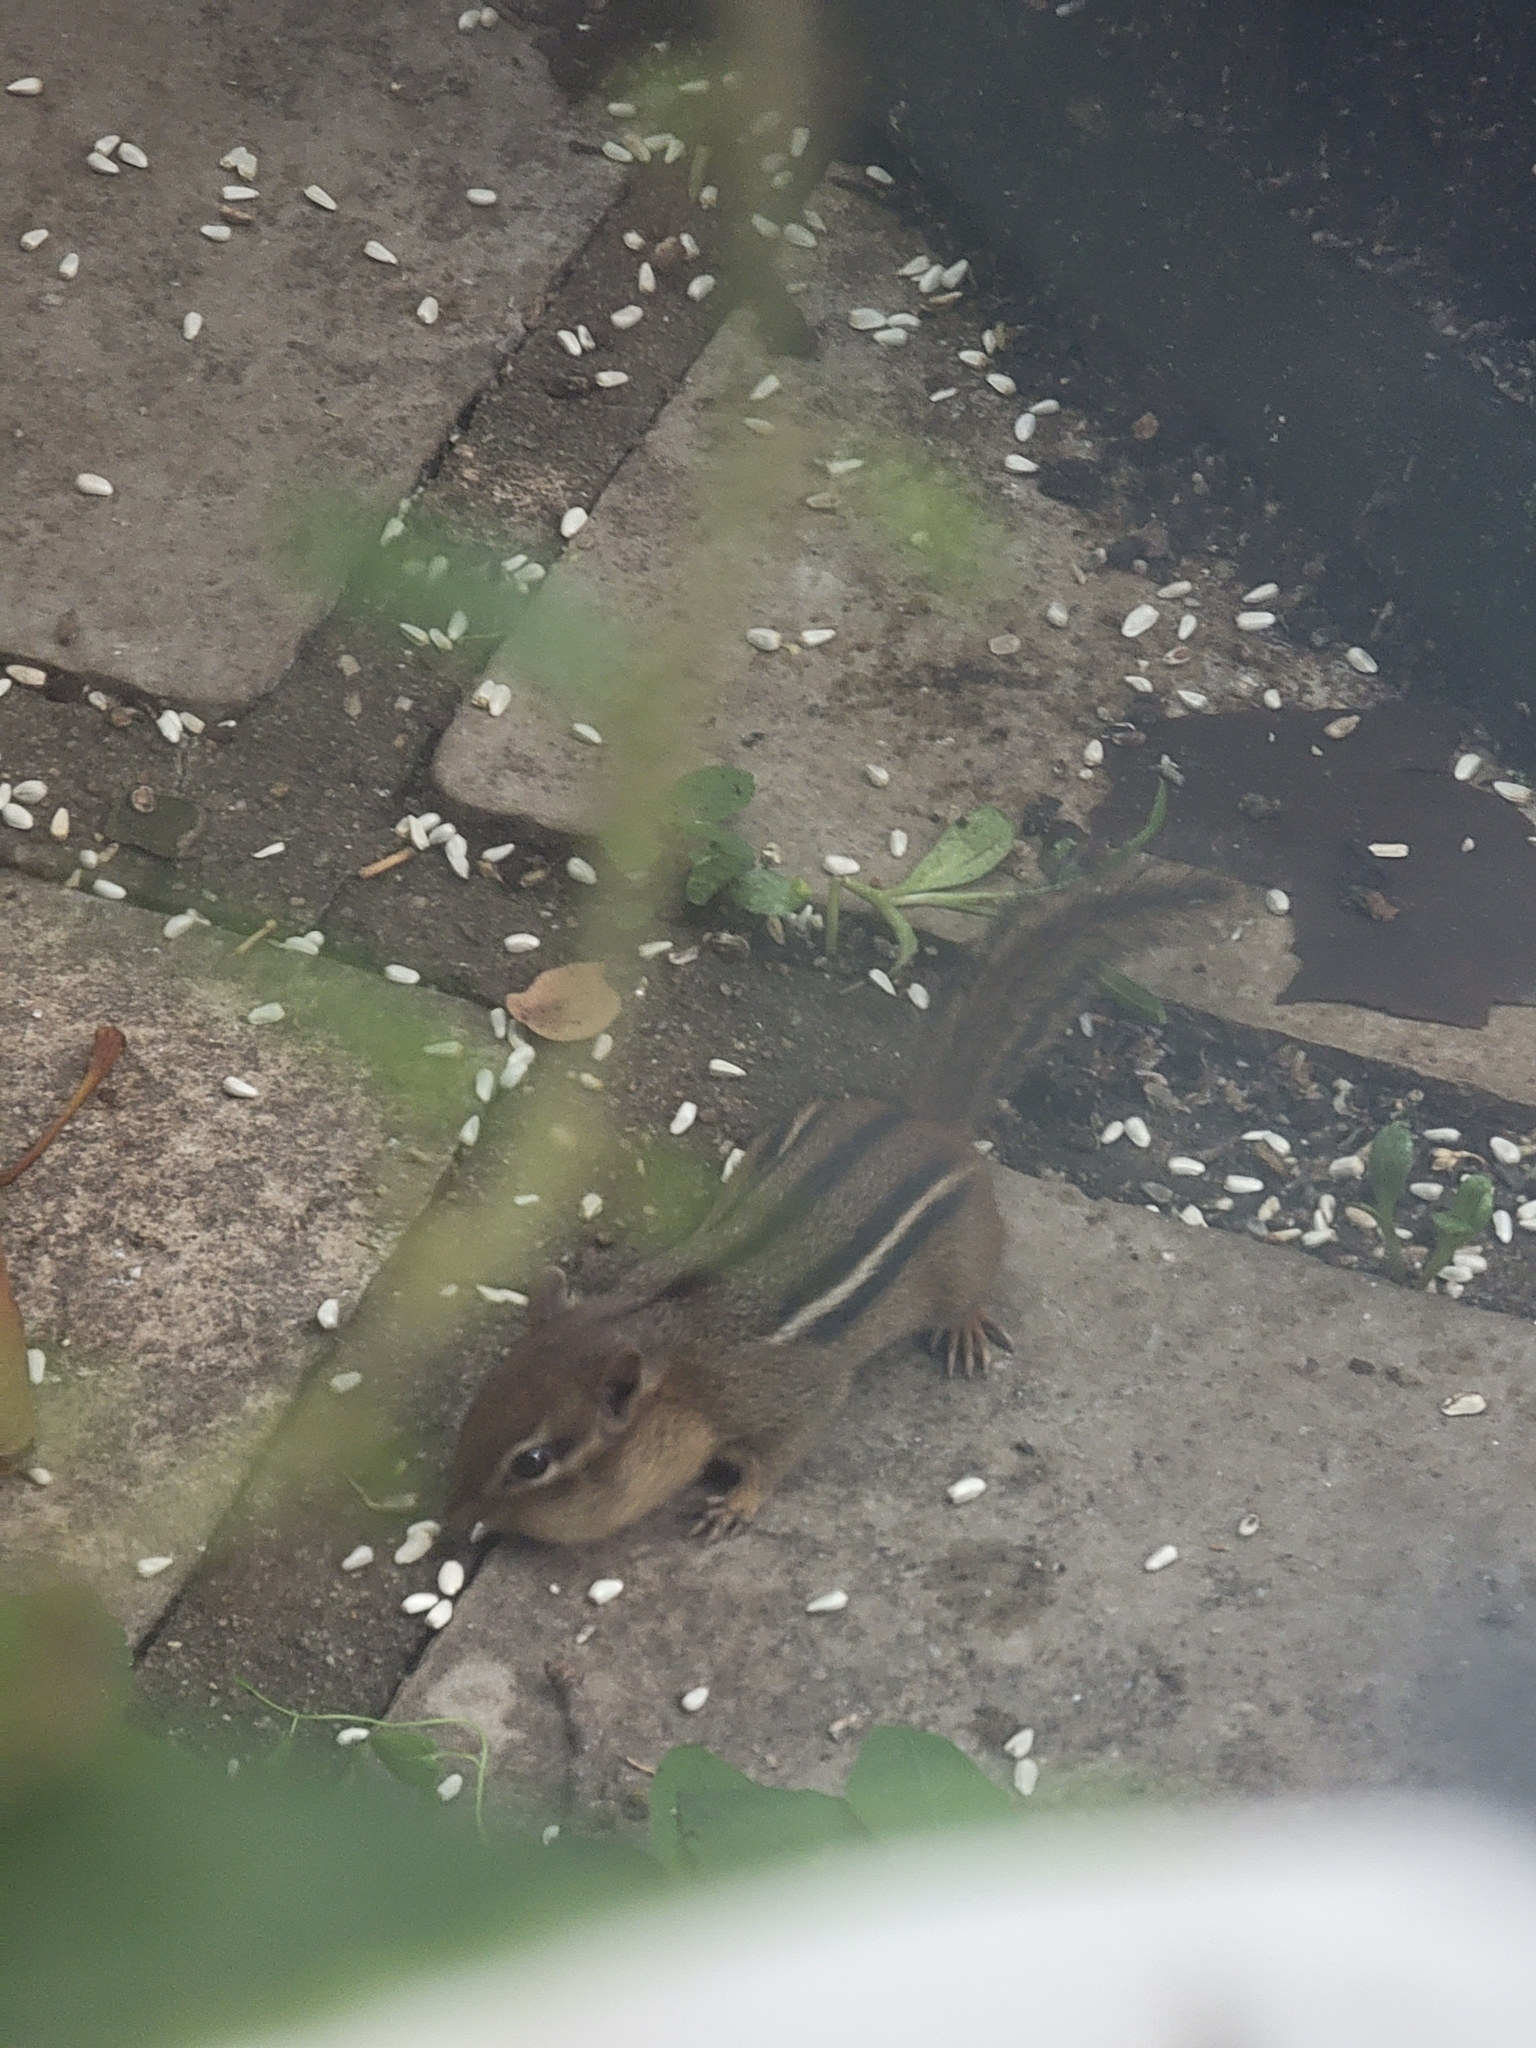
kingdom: Animalia
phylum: Chordata
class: Mammalia
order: Rodentia
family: Sciuridae
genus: Tamias
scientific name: Tamias striatus
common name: Eastern chipmunk
